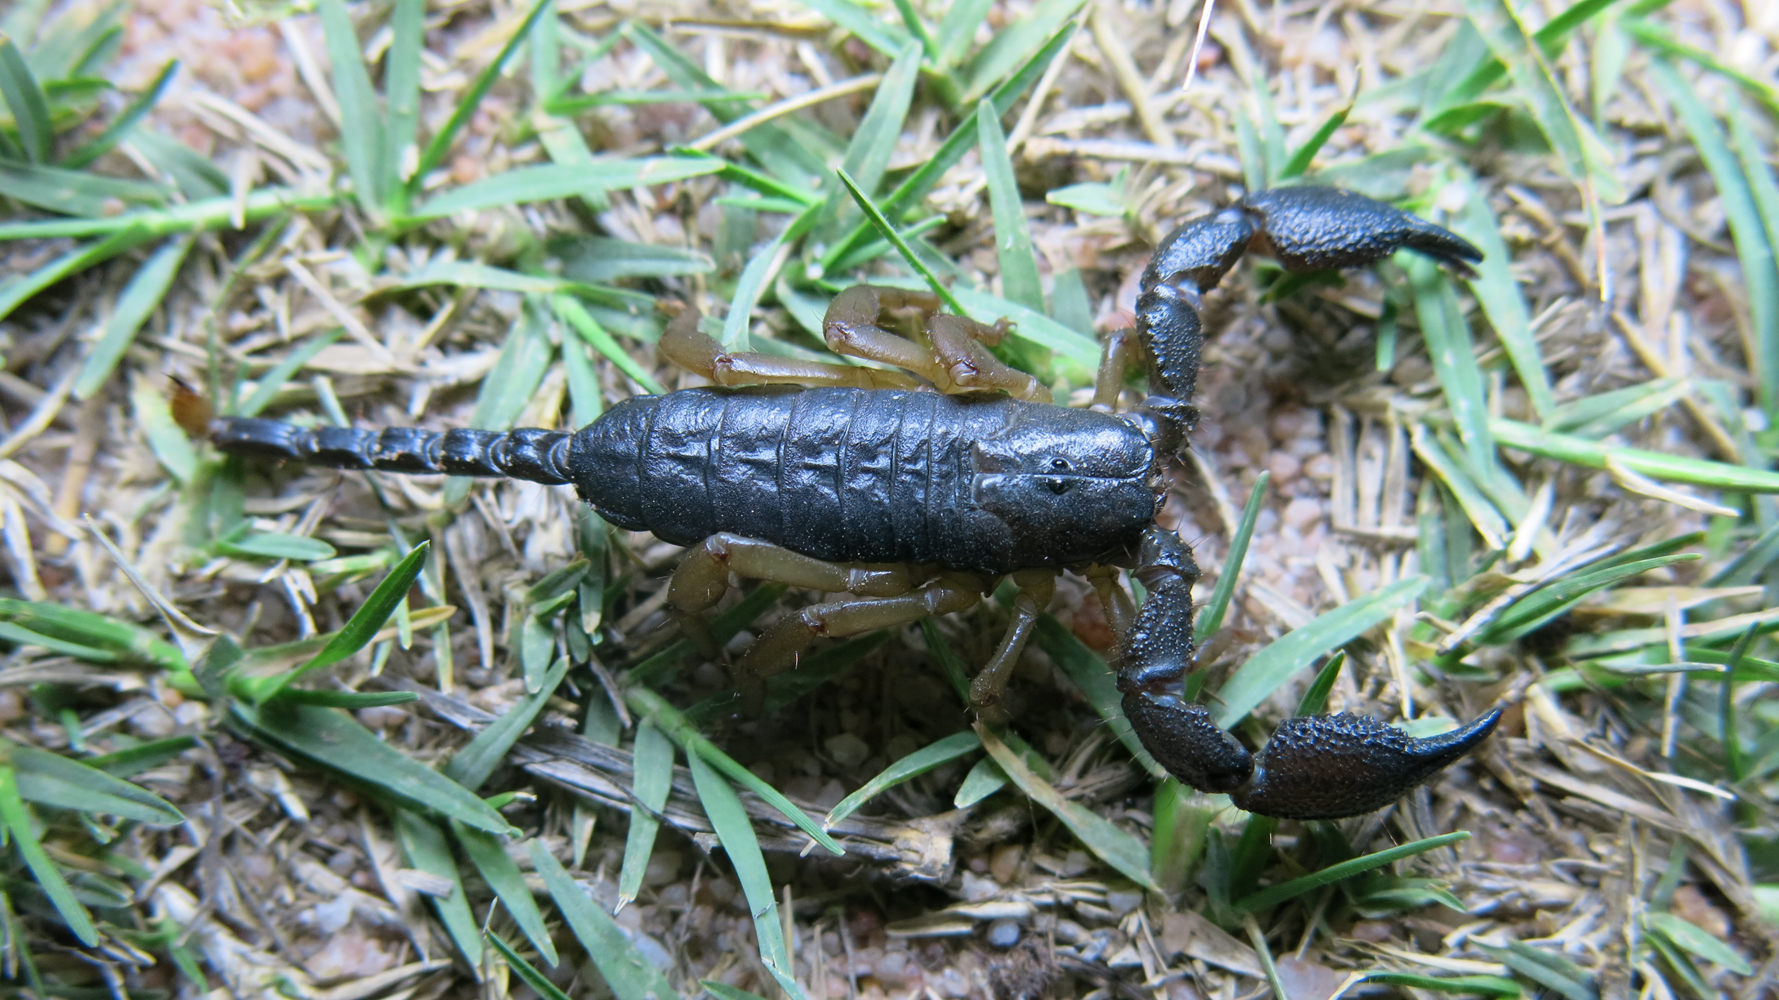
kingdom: Animalia
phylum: Arthropoda
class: Arachnida
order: Scorpiones
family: Hormuridae
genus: Opisthacanthus
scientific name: Opisthacanthus asper
